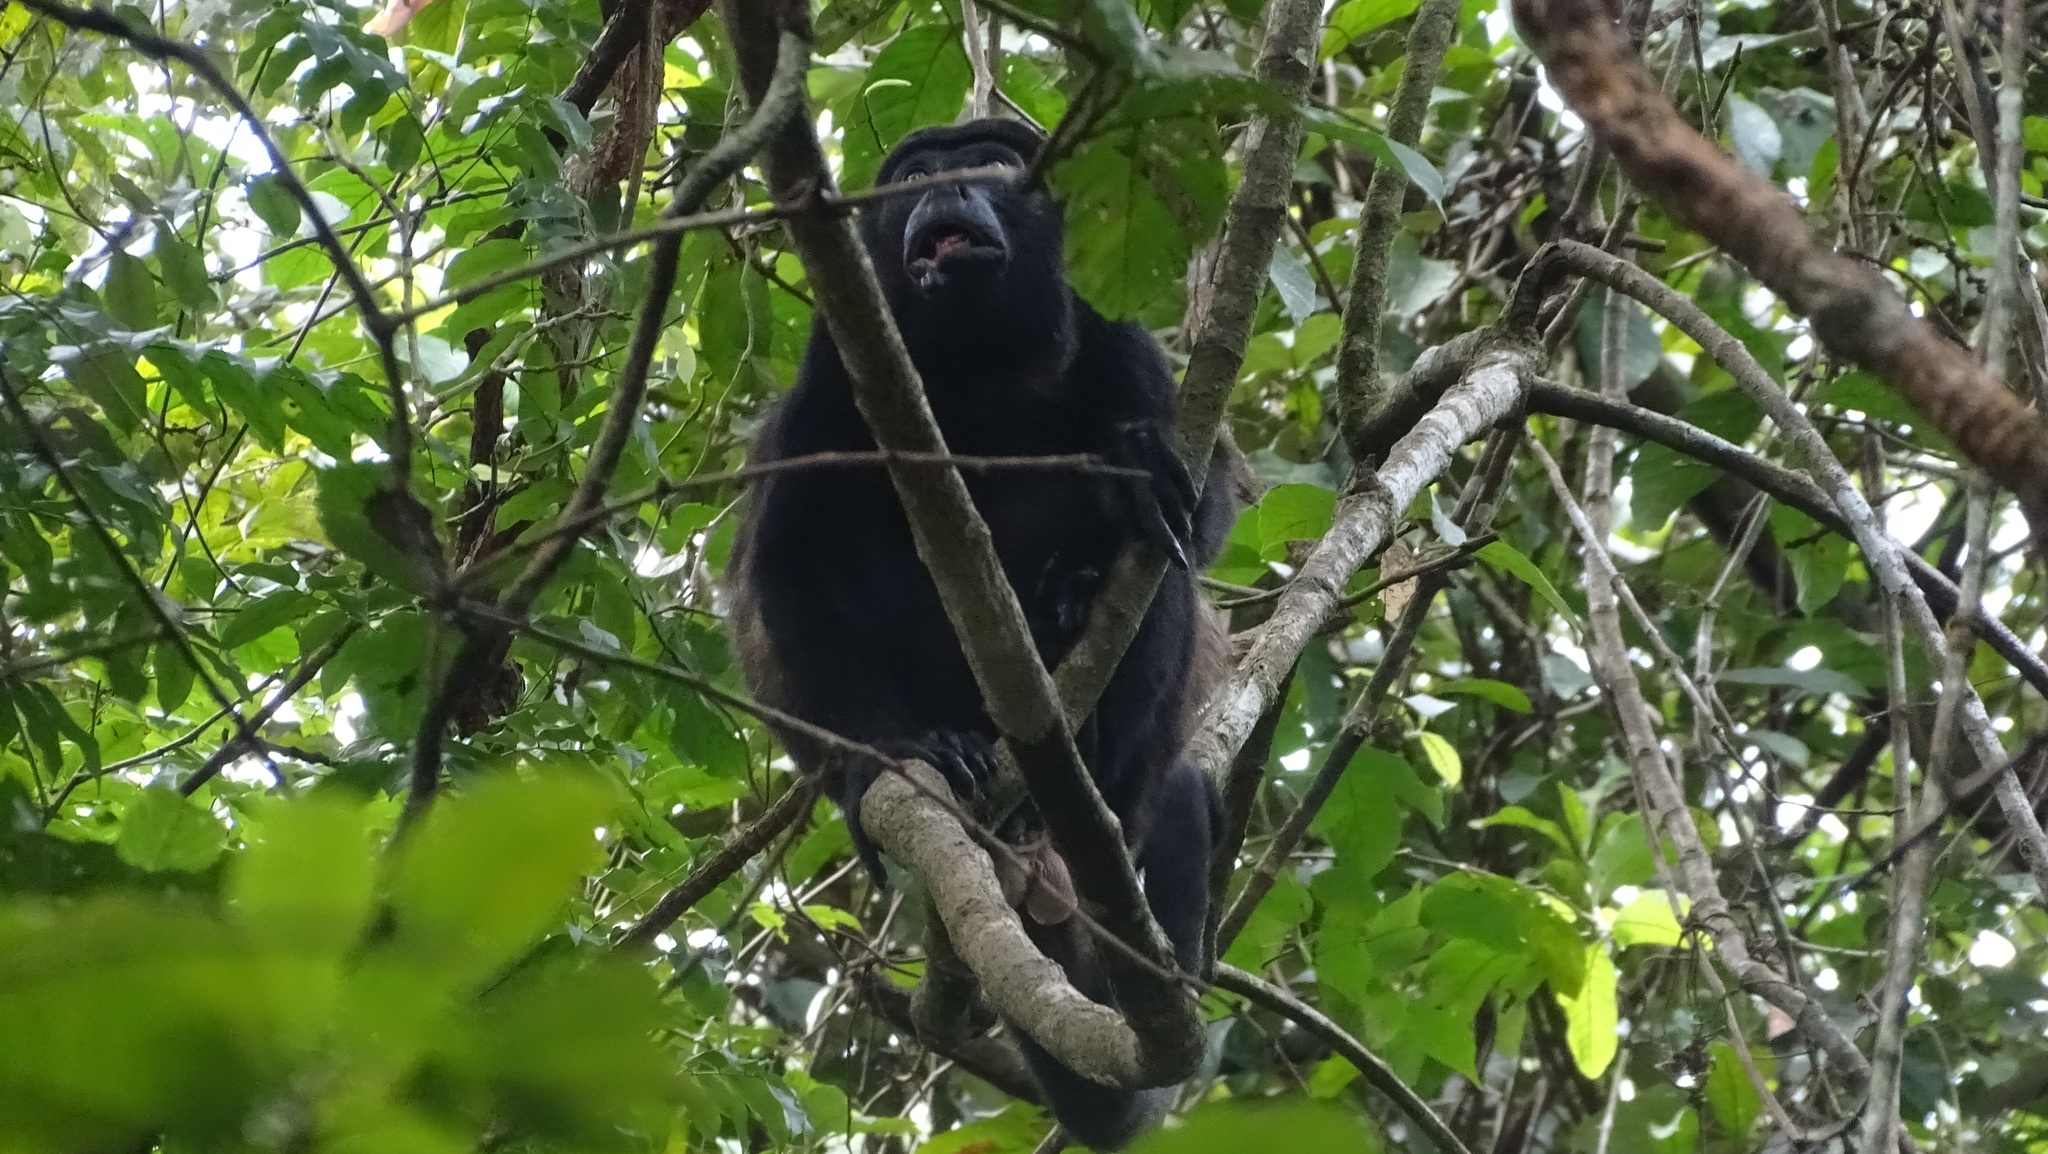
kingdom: Animalia
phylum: Chordata
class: Mammalia
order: Primates
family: Atelidae
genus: Alouatta
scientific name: Alouatta palliata
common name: Mantled howler
